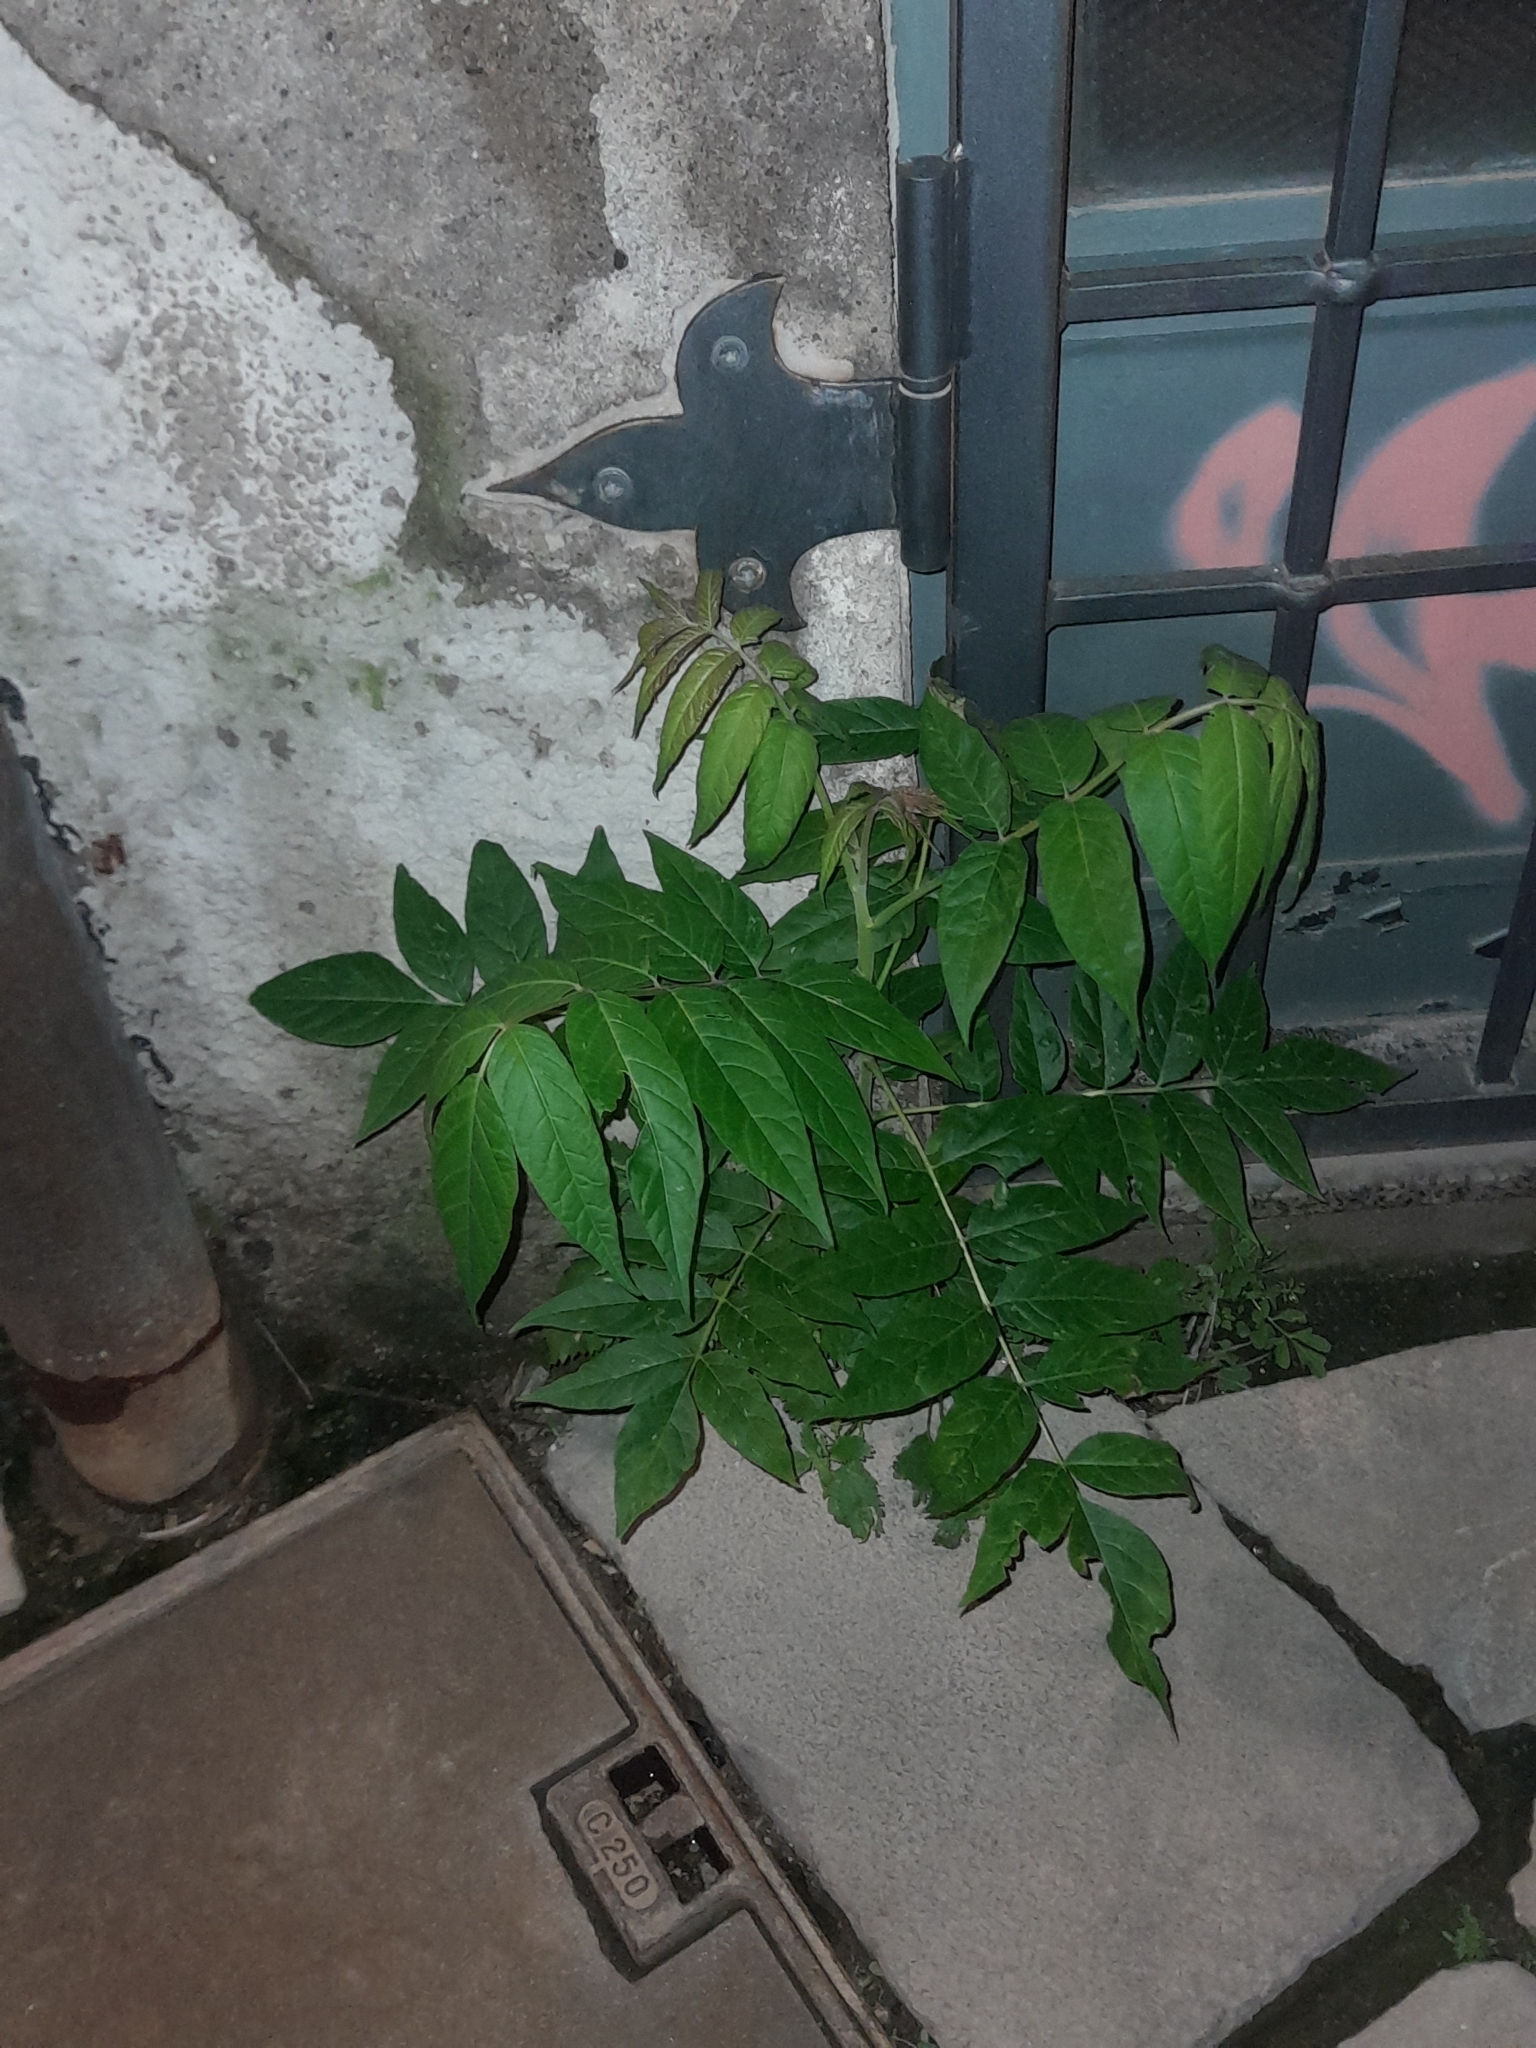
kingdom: Plantae
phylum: Tracheophyta
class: Magnoliopsida
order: Sapindales
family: Simaroubaceae
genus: Ailanthus
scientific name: Ailanthus altissima
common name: Tree-of-heaven
